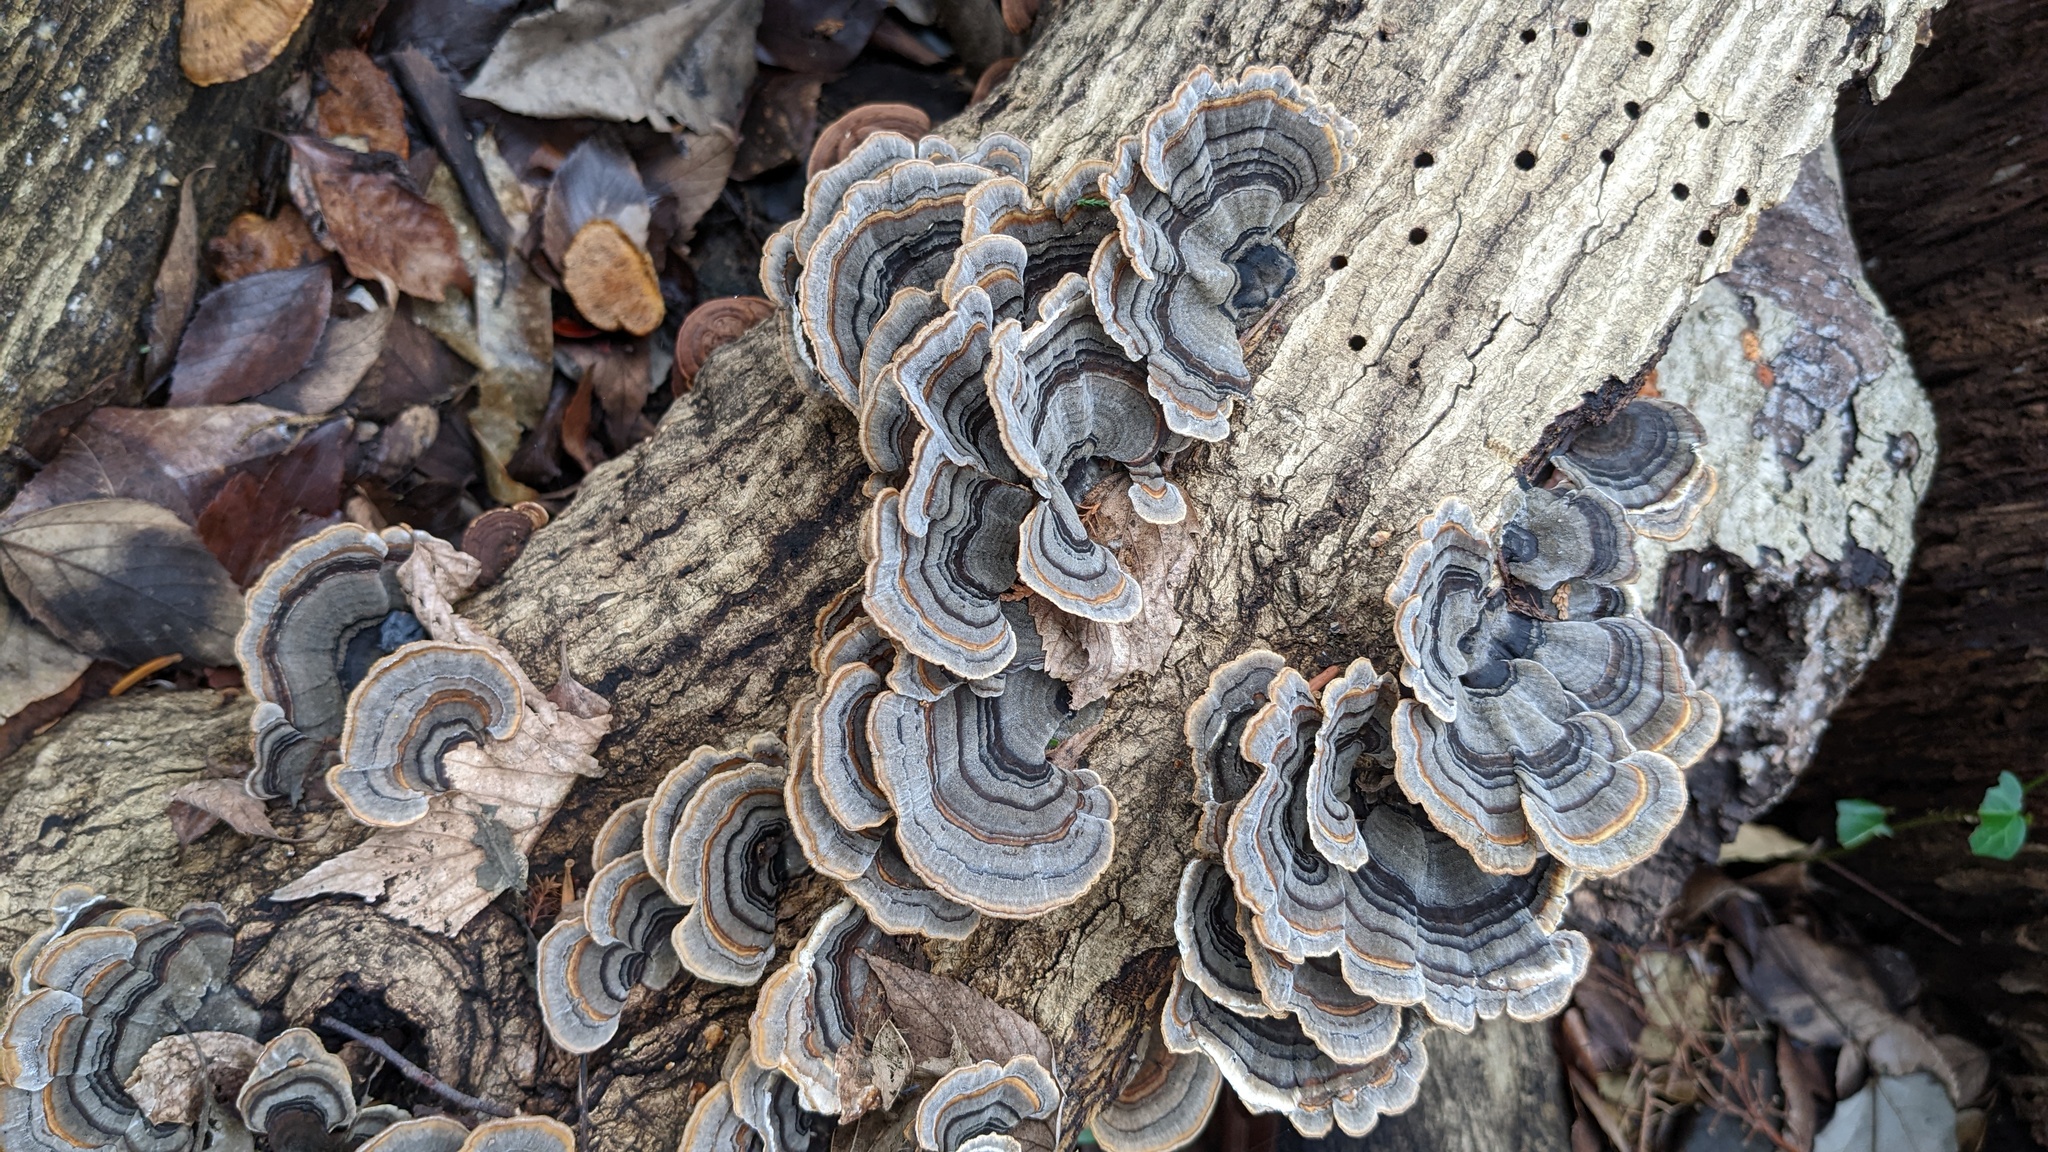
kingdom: Fungi
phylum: Basidiomycota
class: Agaricomycetes
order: Polyporales
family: Polyporaceae
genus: Trametes
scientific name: Trametes versicolor
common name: Turkeytail
